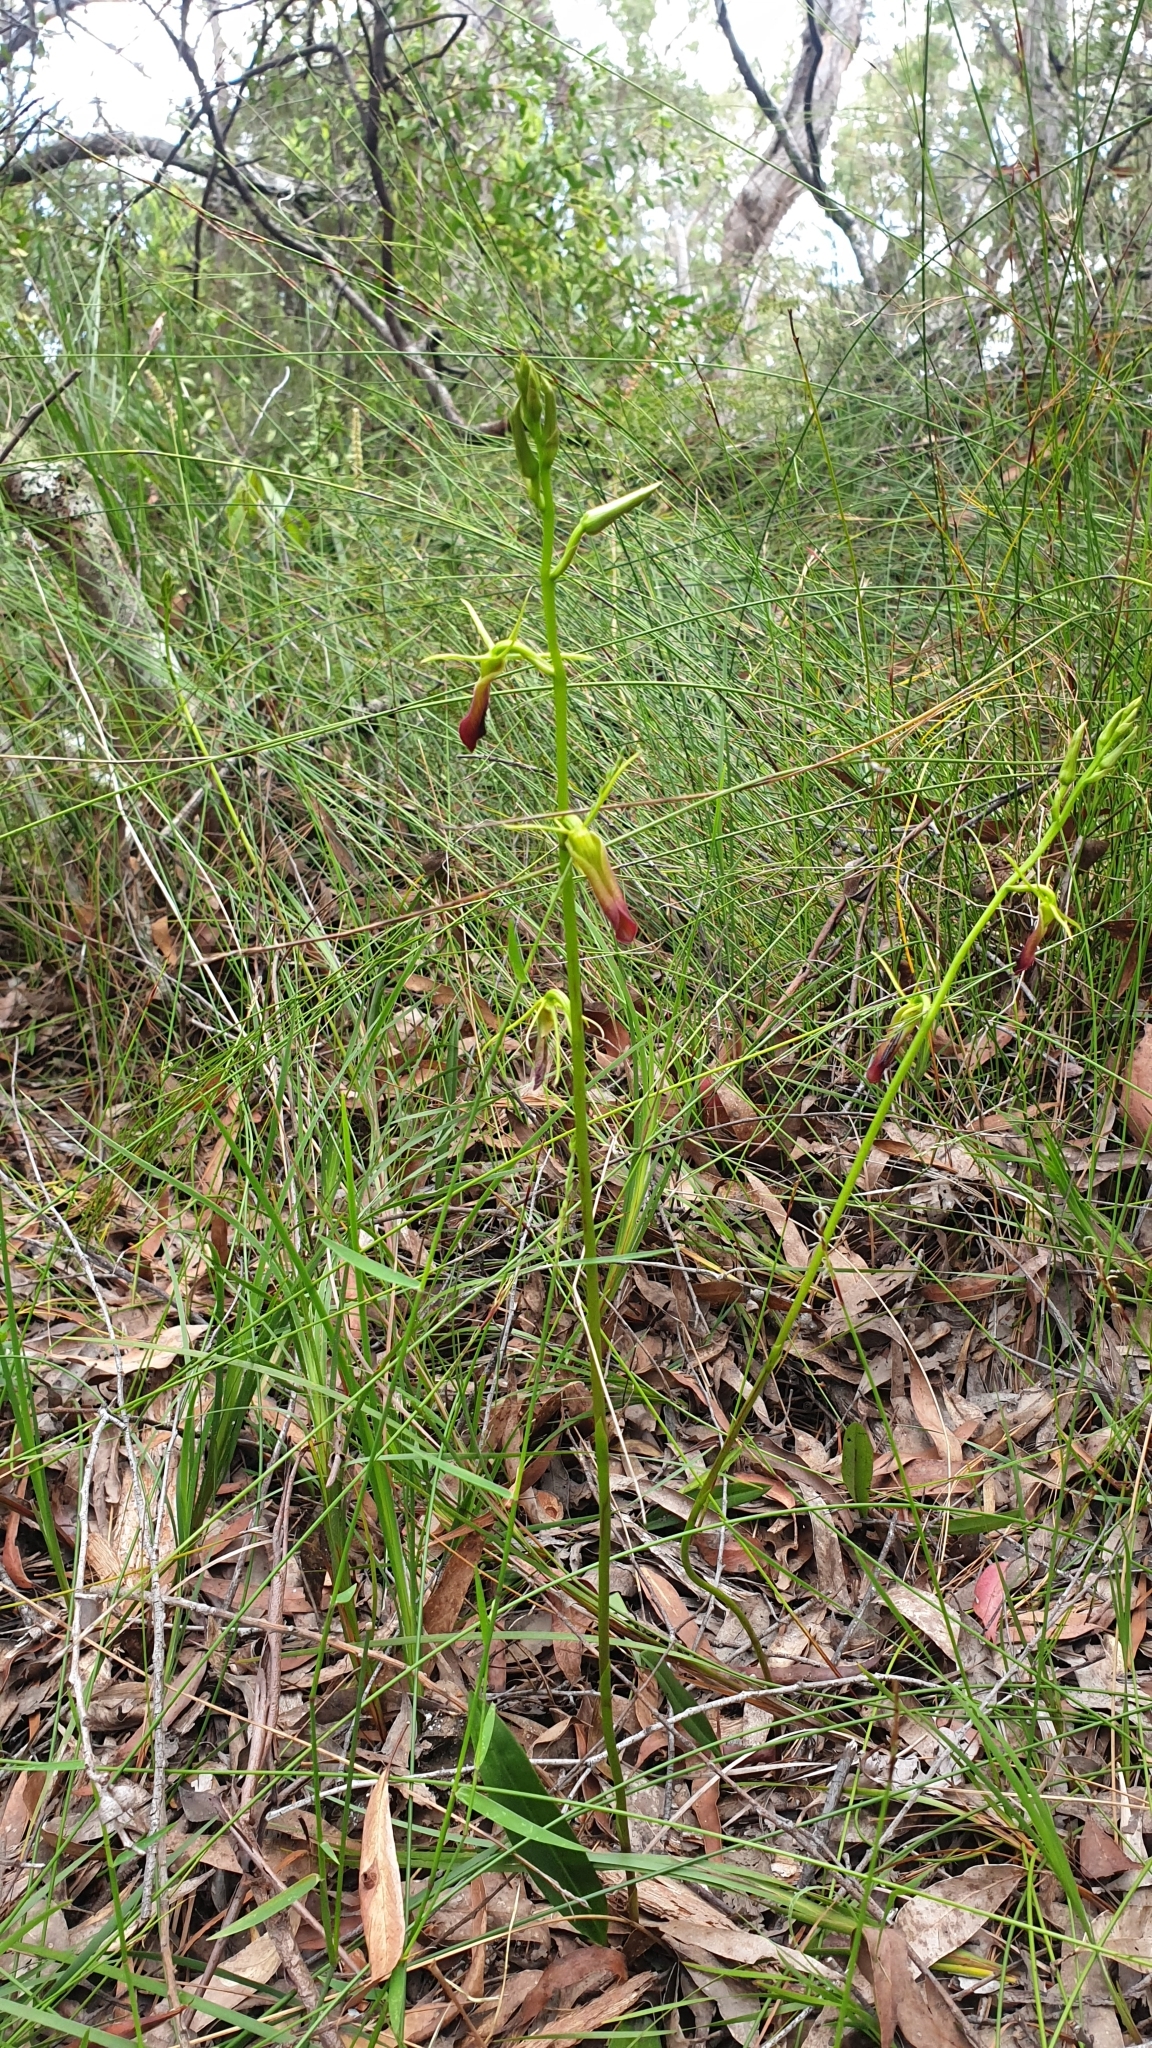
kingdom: Plantae
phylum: Tracheophyta
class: Liliopsida
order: Asparagales
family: Orchidaceae
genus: Cryptostylis
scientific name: Cryptostylis subulata
